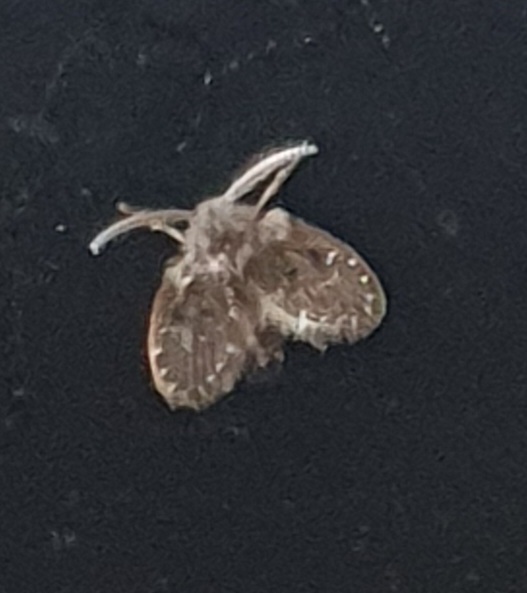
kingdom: Animalia
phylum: Arthropoda
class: Insecta
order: Diptera
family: Psychodidae
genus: Clogmia
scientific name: Clogmia albipunctatus
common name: White-spotted moth fly
